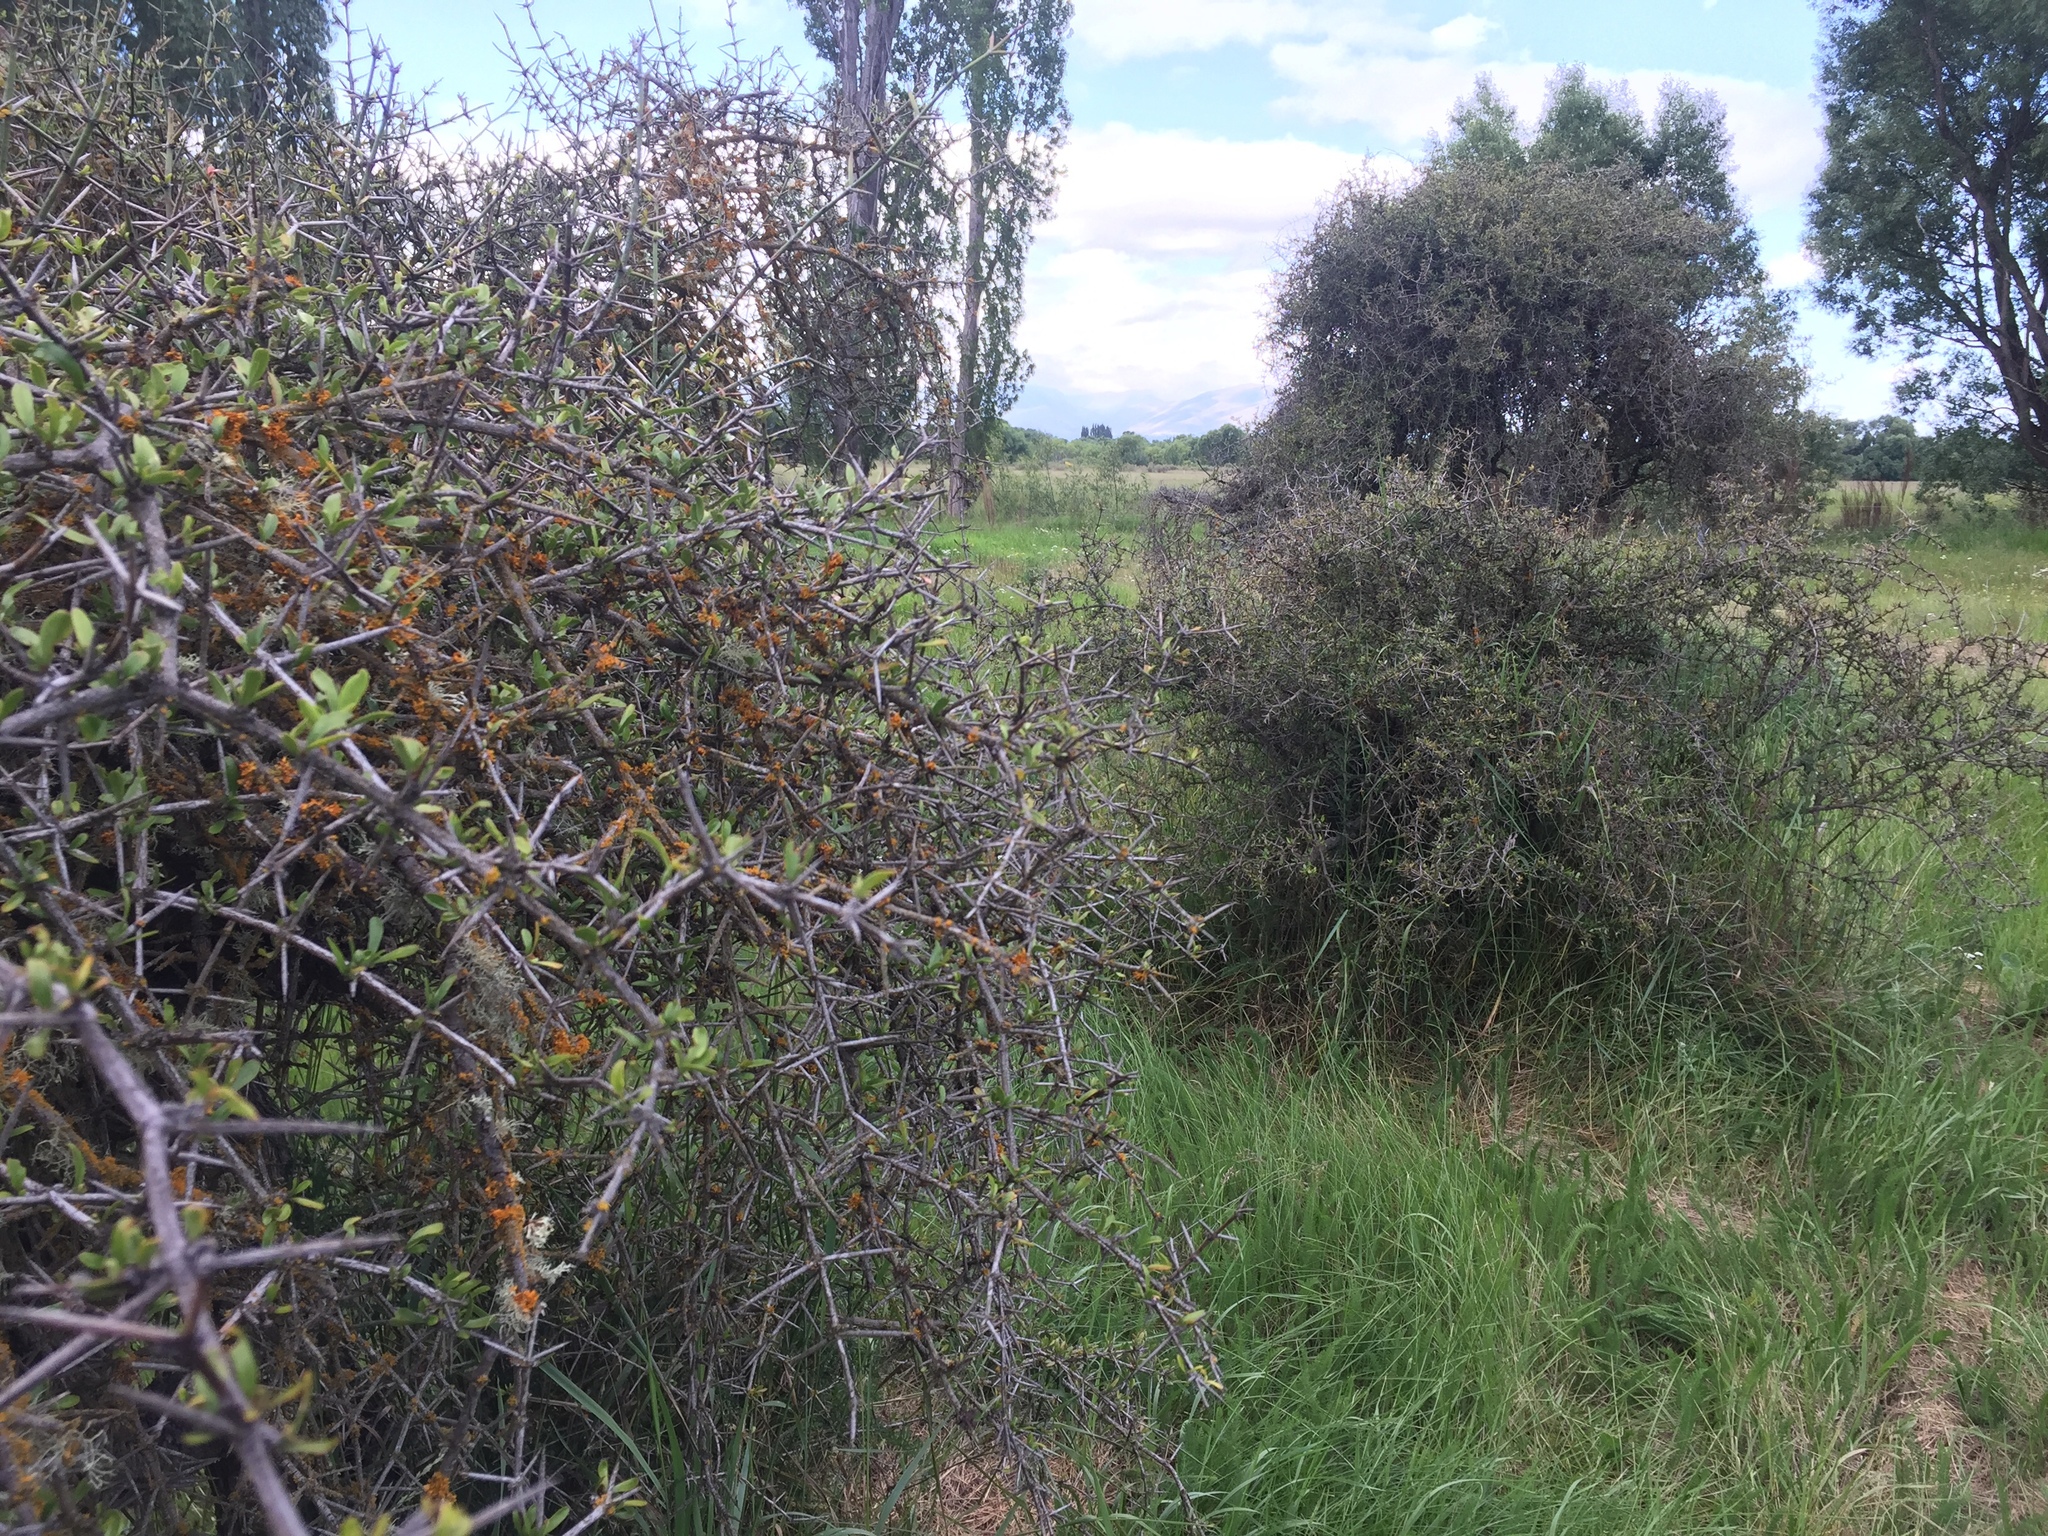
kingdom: Plantae
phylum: Tracheophyta
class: Magnoliopsida
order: Rosales
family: Rhamnaceae
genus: Discaria
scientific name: Discaria toumatou
